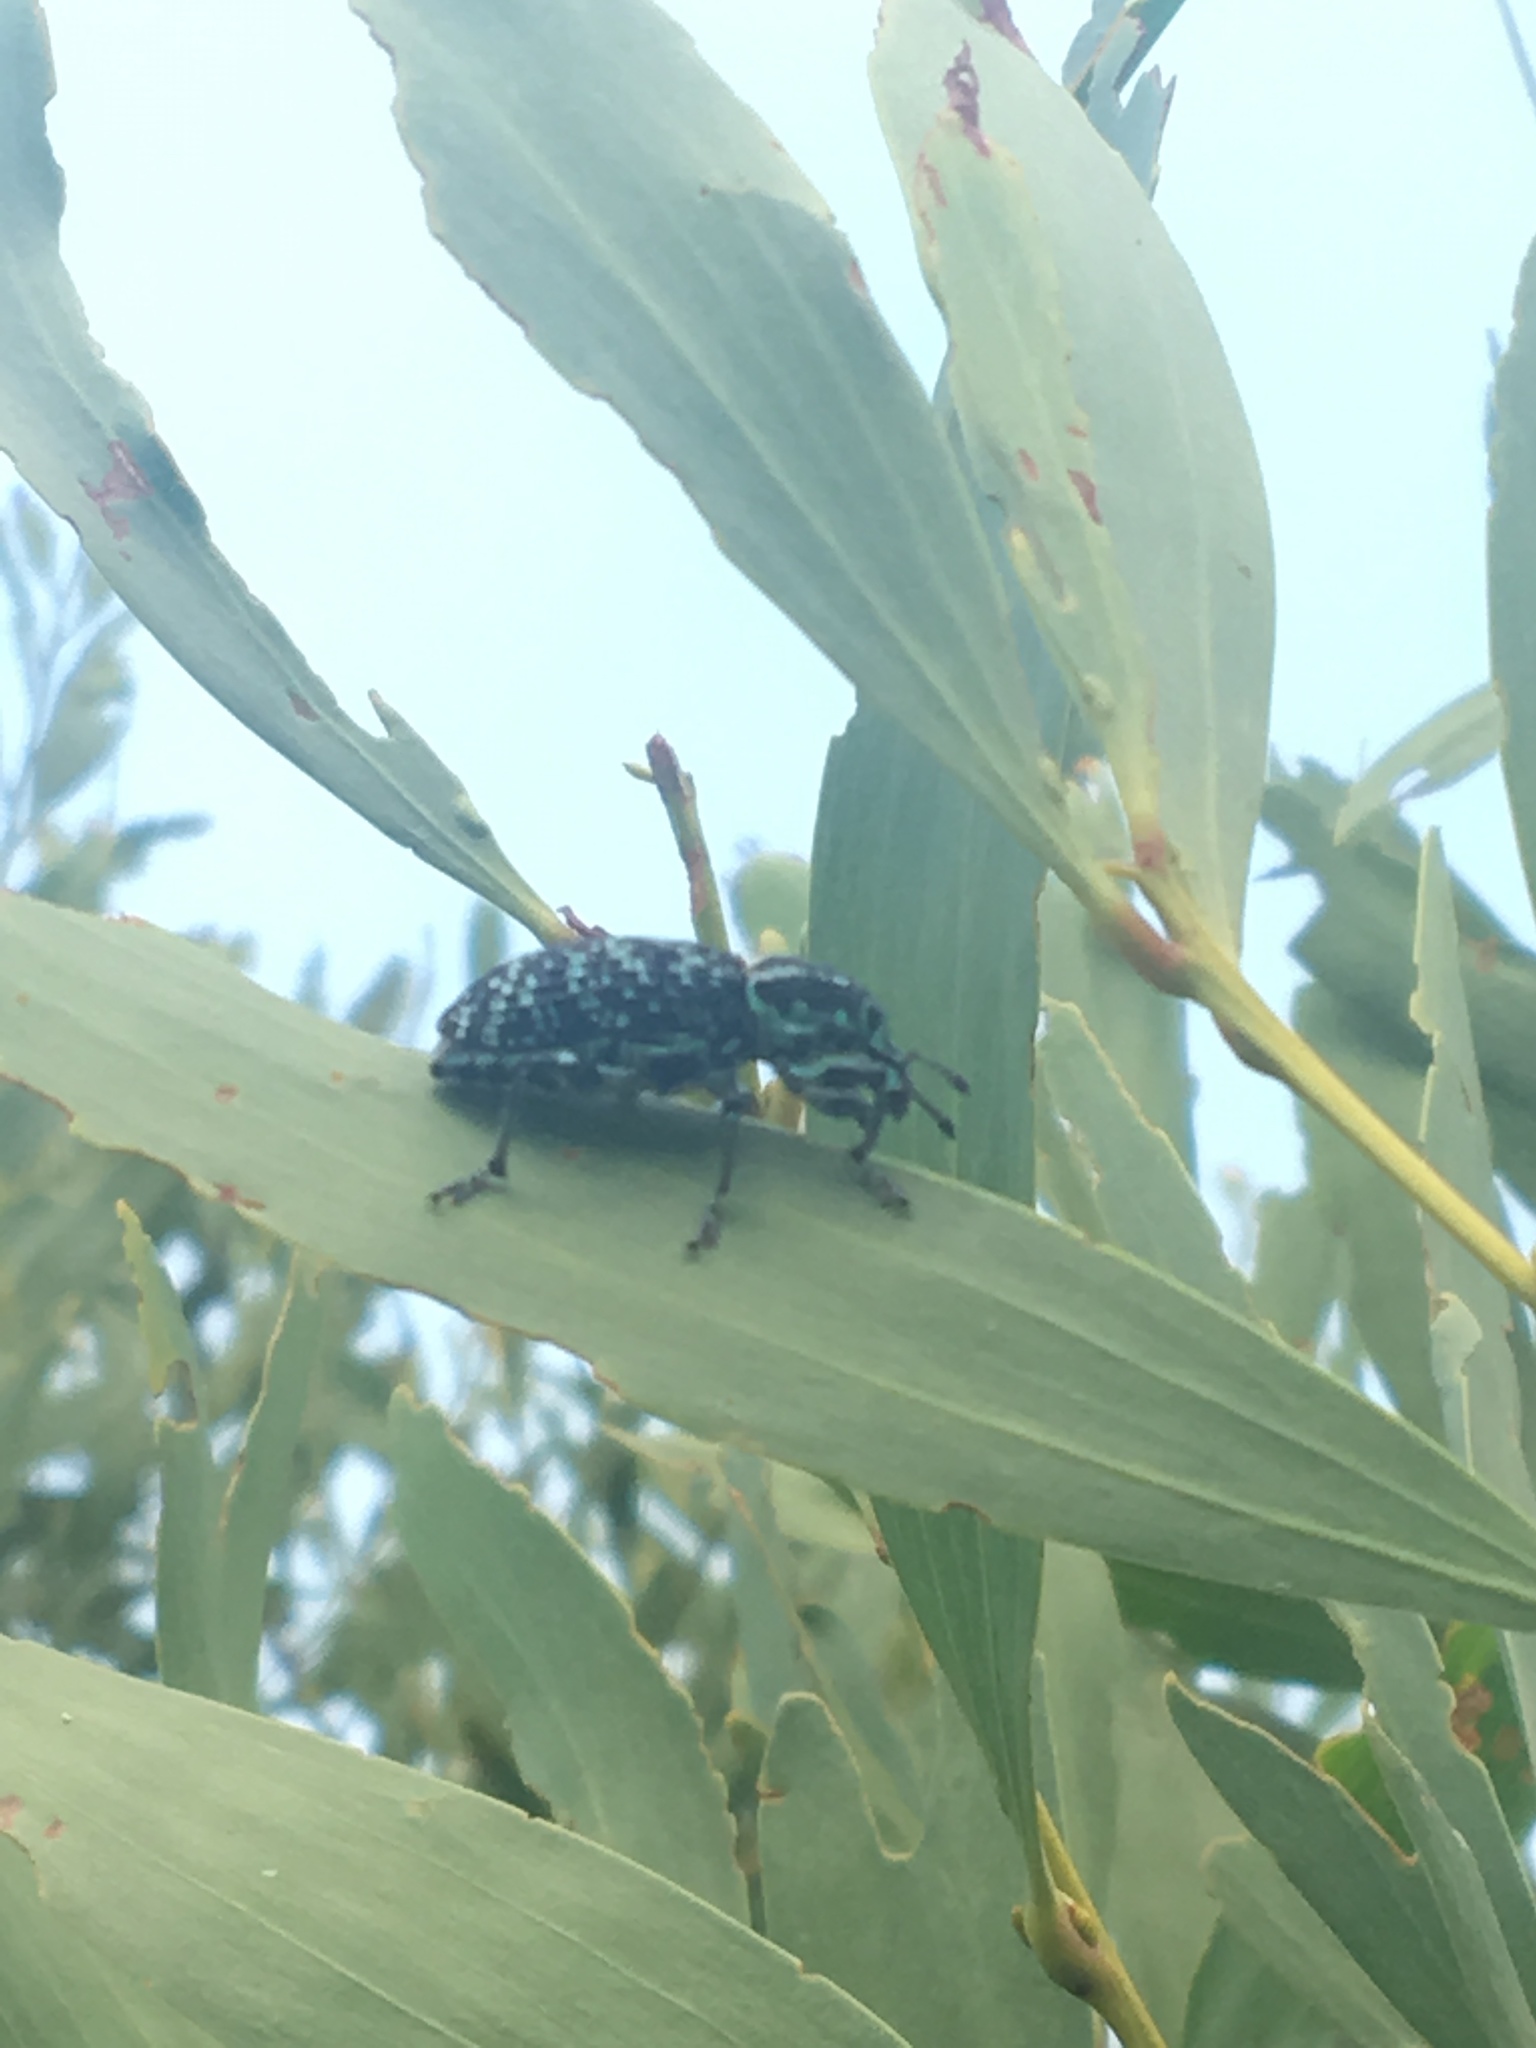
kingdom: Animalia
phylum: Arthropoda
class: Insecta
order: Coleoptera
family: Curculionidae
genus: Chrysolopus
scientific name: Chrysolopus spectabilis
